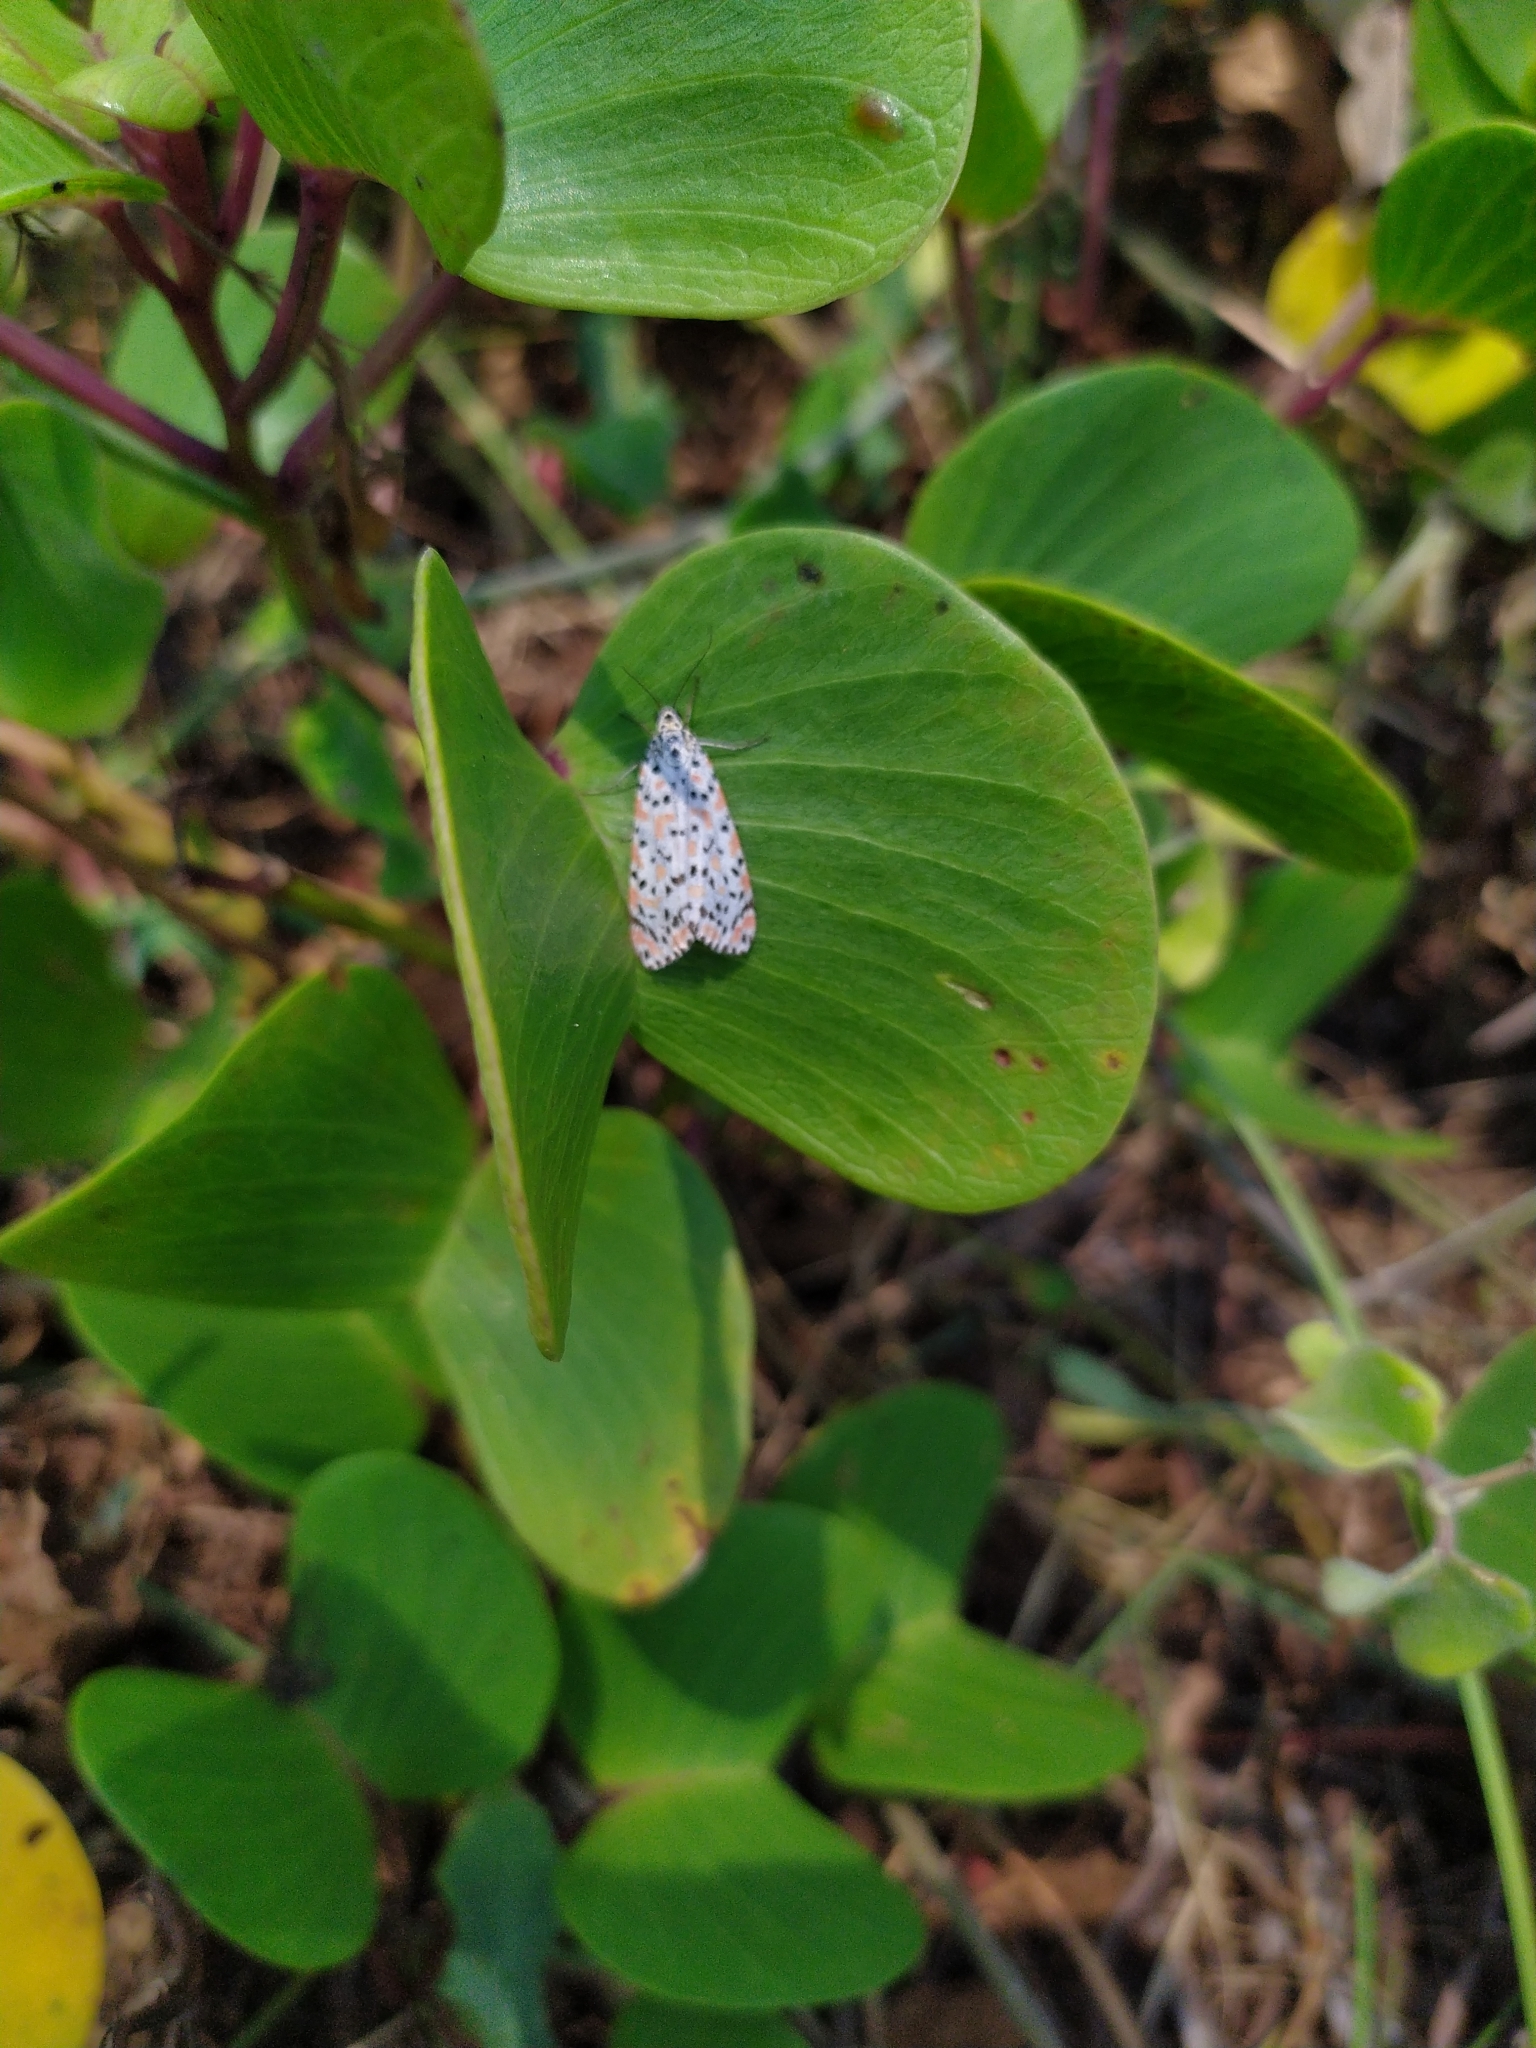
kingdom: Animalia
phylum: Arthropoda
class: Insecta
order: Lepidoptera
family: Erebidae
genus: Utetheisa
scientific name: Utetheisa lotrix
